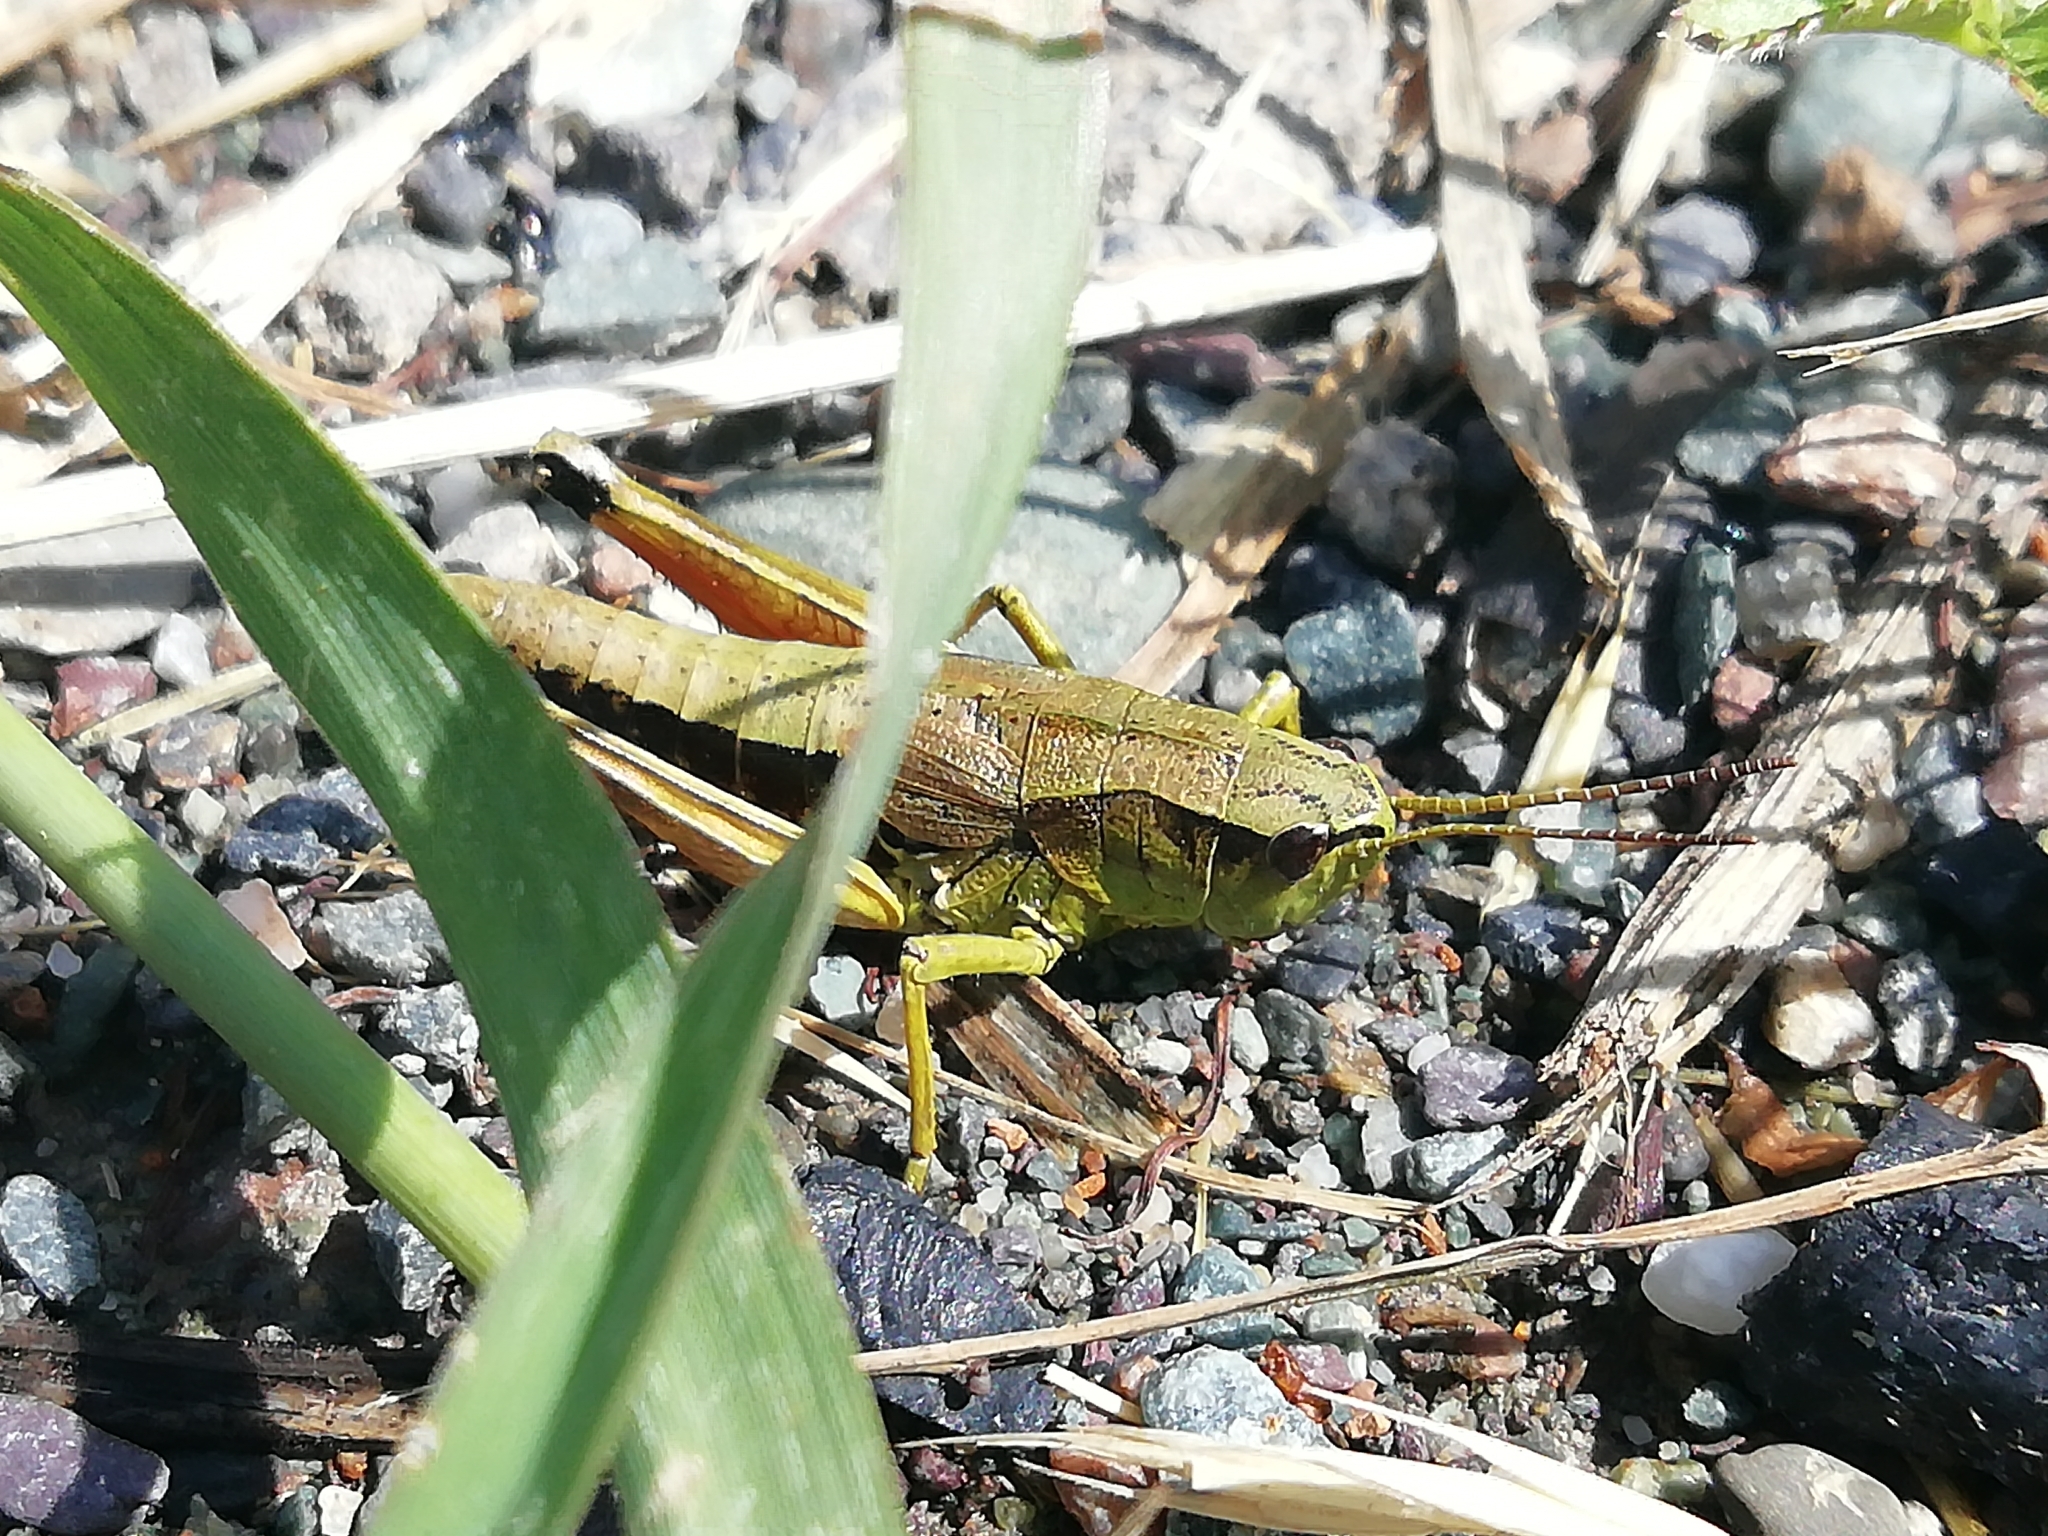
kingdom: Animalia
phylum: Arthropoda
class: Insecta
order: Orthoptera
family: Acrididae
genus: Podismopsis
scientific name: Podismopsis poppiusi
